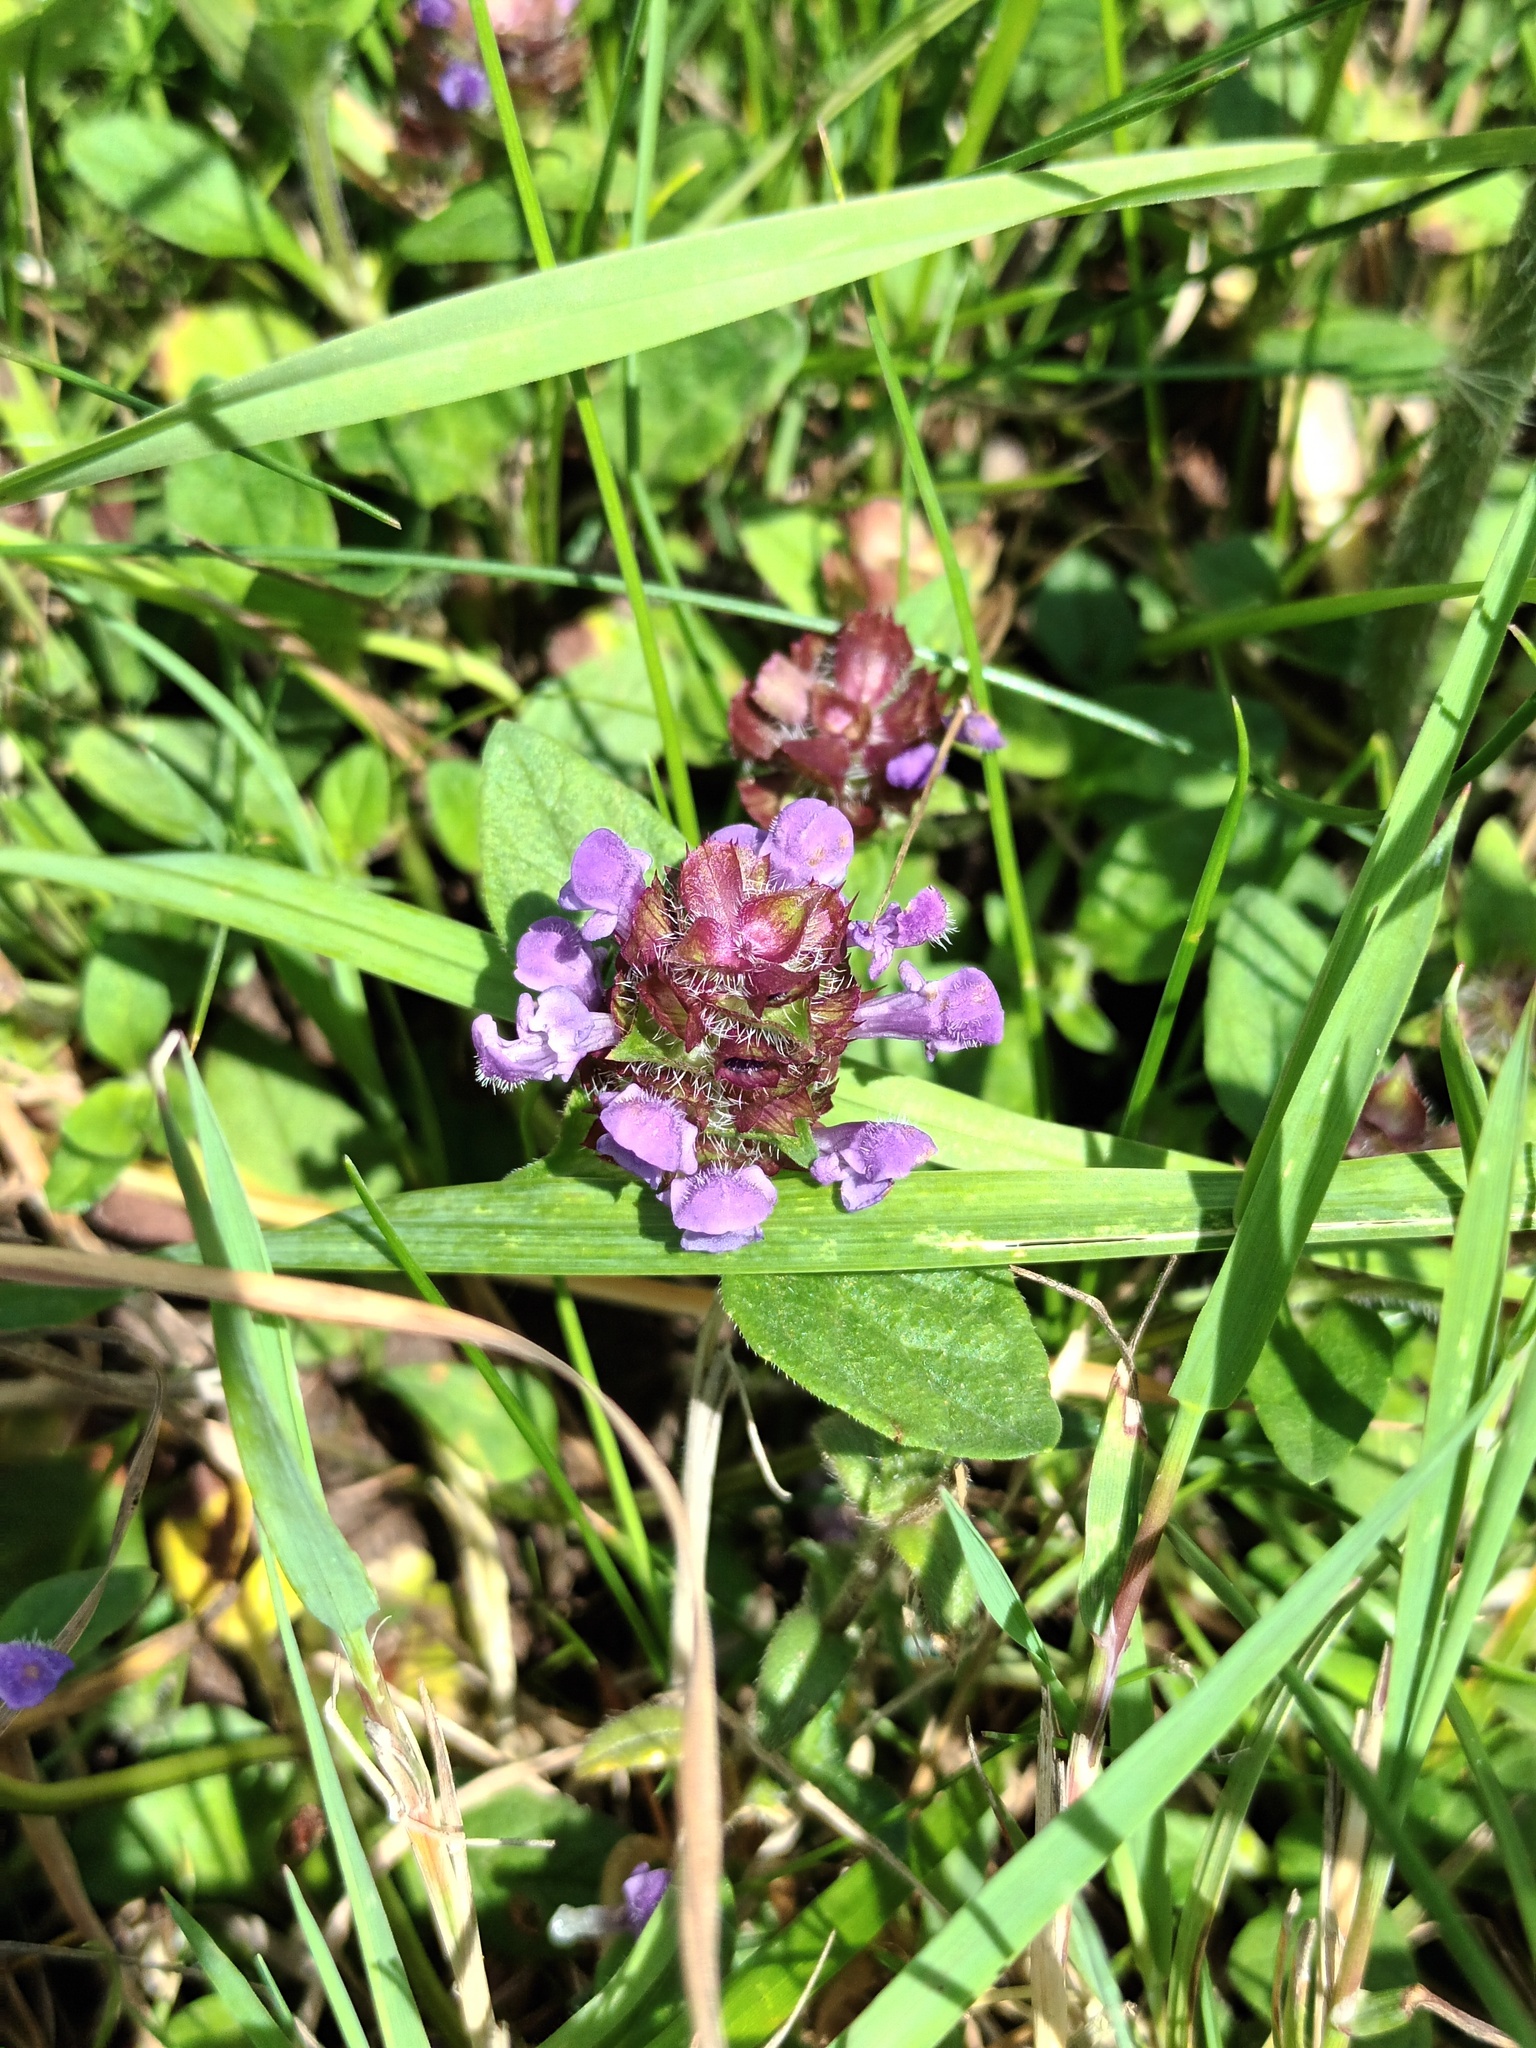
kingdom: Plantae
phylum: Tracheophyta
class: Magnoliopsida
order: Lamiales
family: Lamiaceae
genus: Prunella
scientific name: Prunella vulgaris
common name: Heal-all
